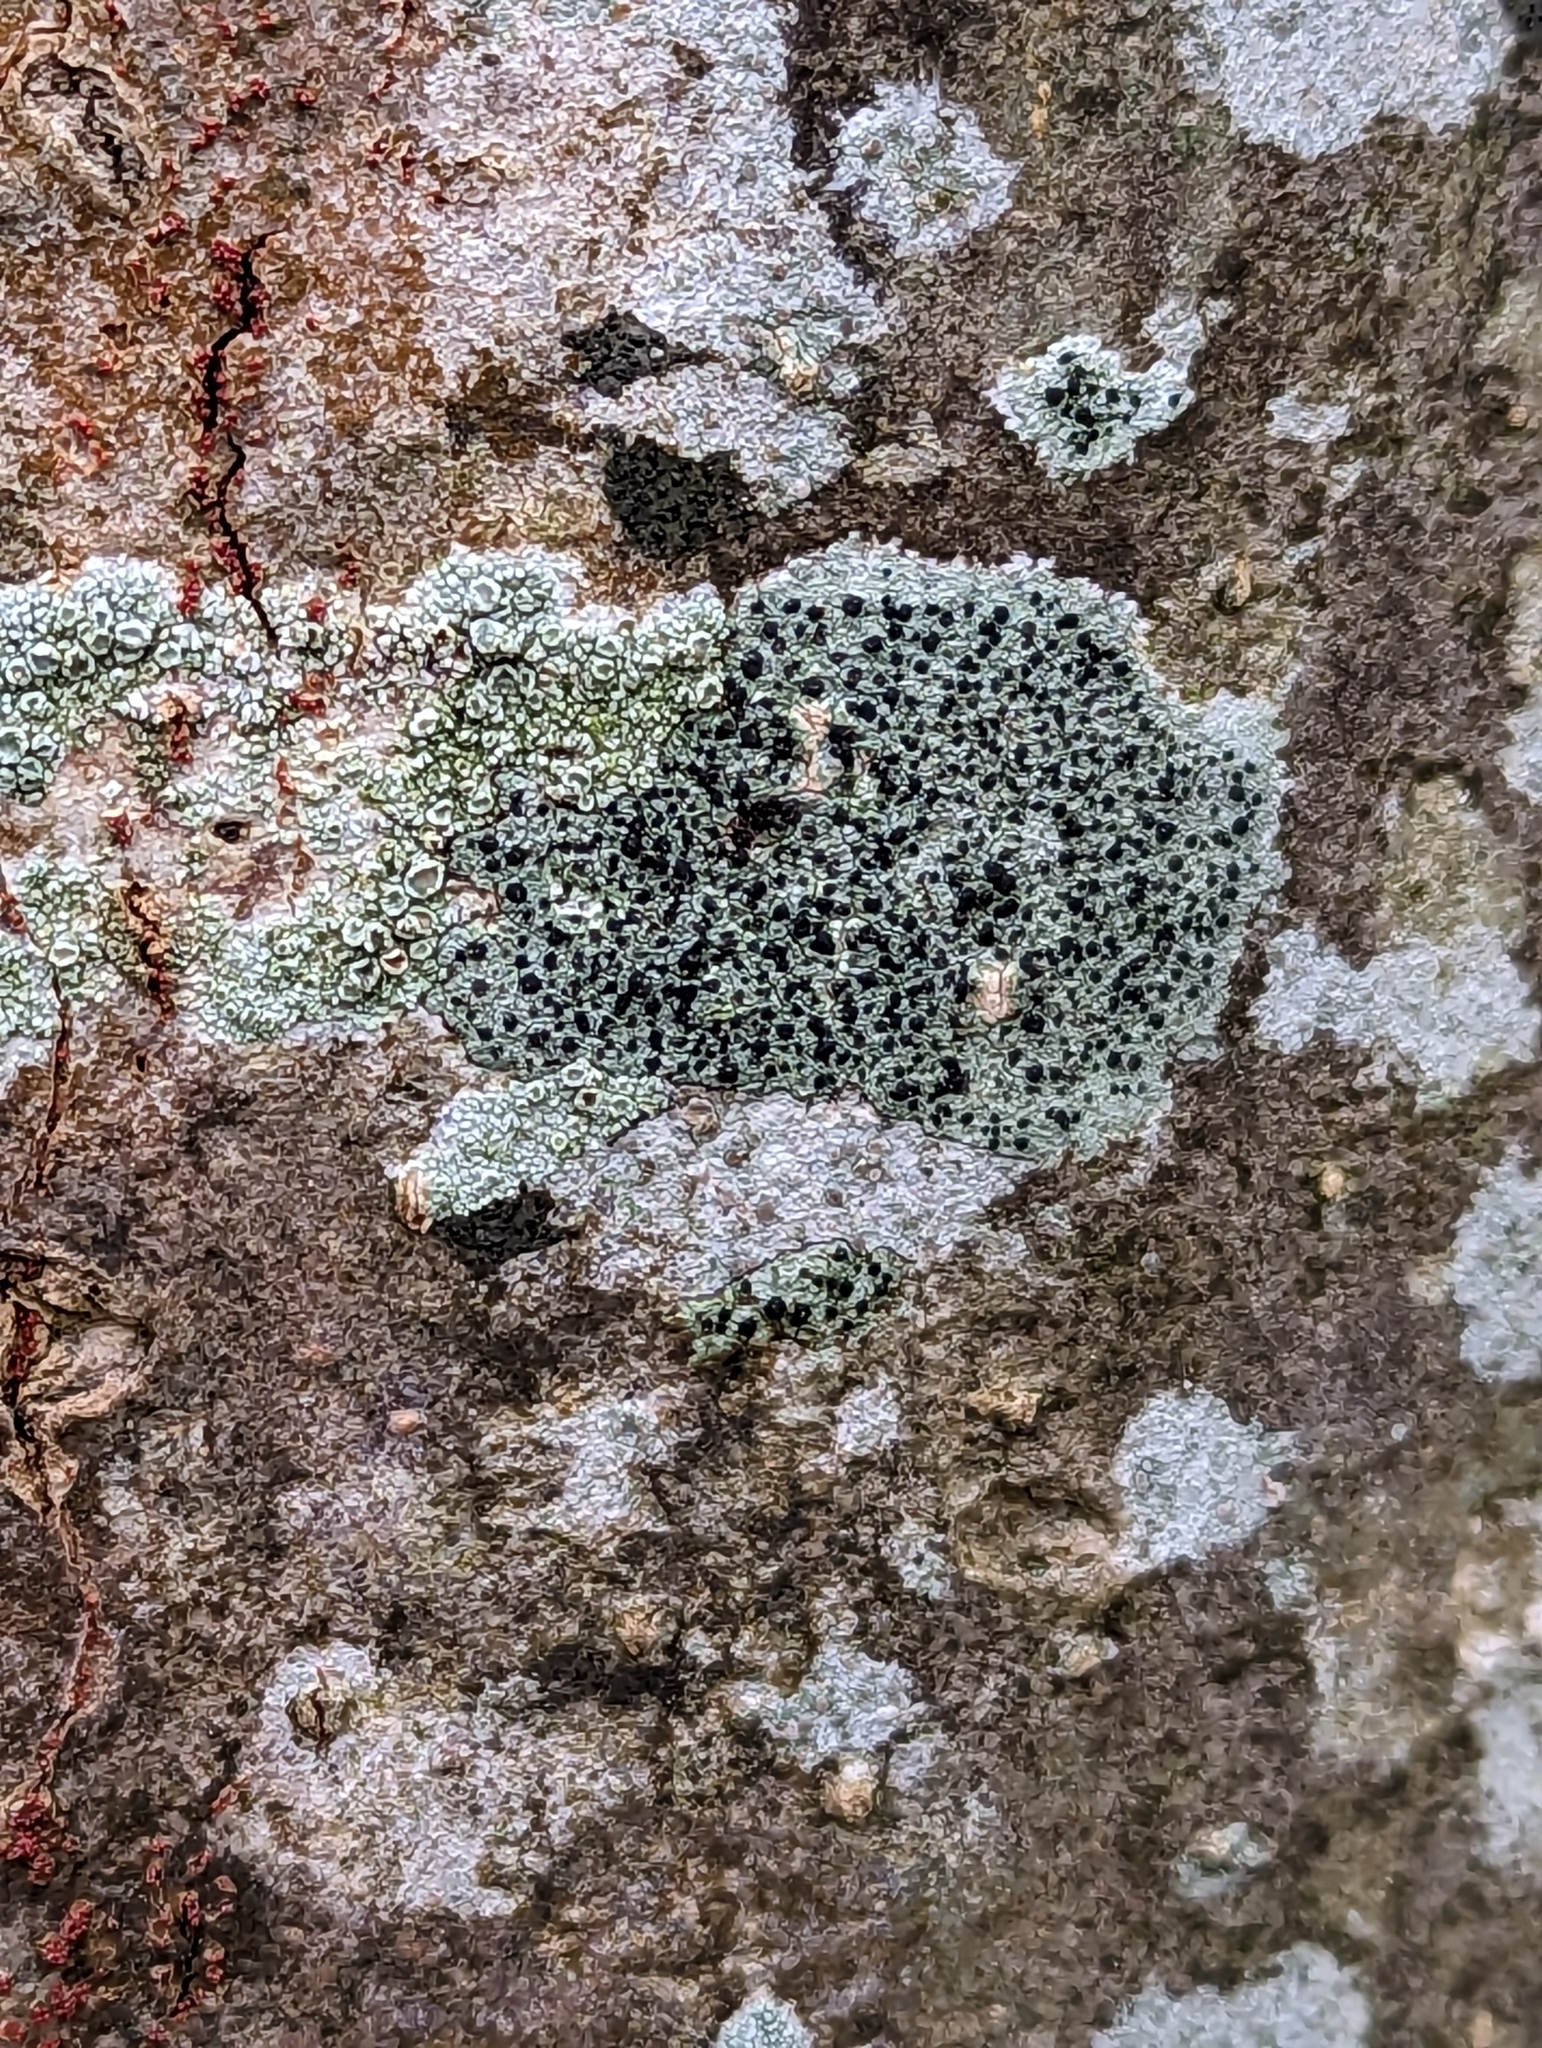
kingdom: Fungi
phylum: Ascomycota
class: Lecanoromycetes
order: Lecanorales
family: Lecanoraceae
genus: Lecidella
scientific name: Lecidella elaeochroma
